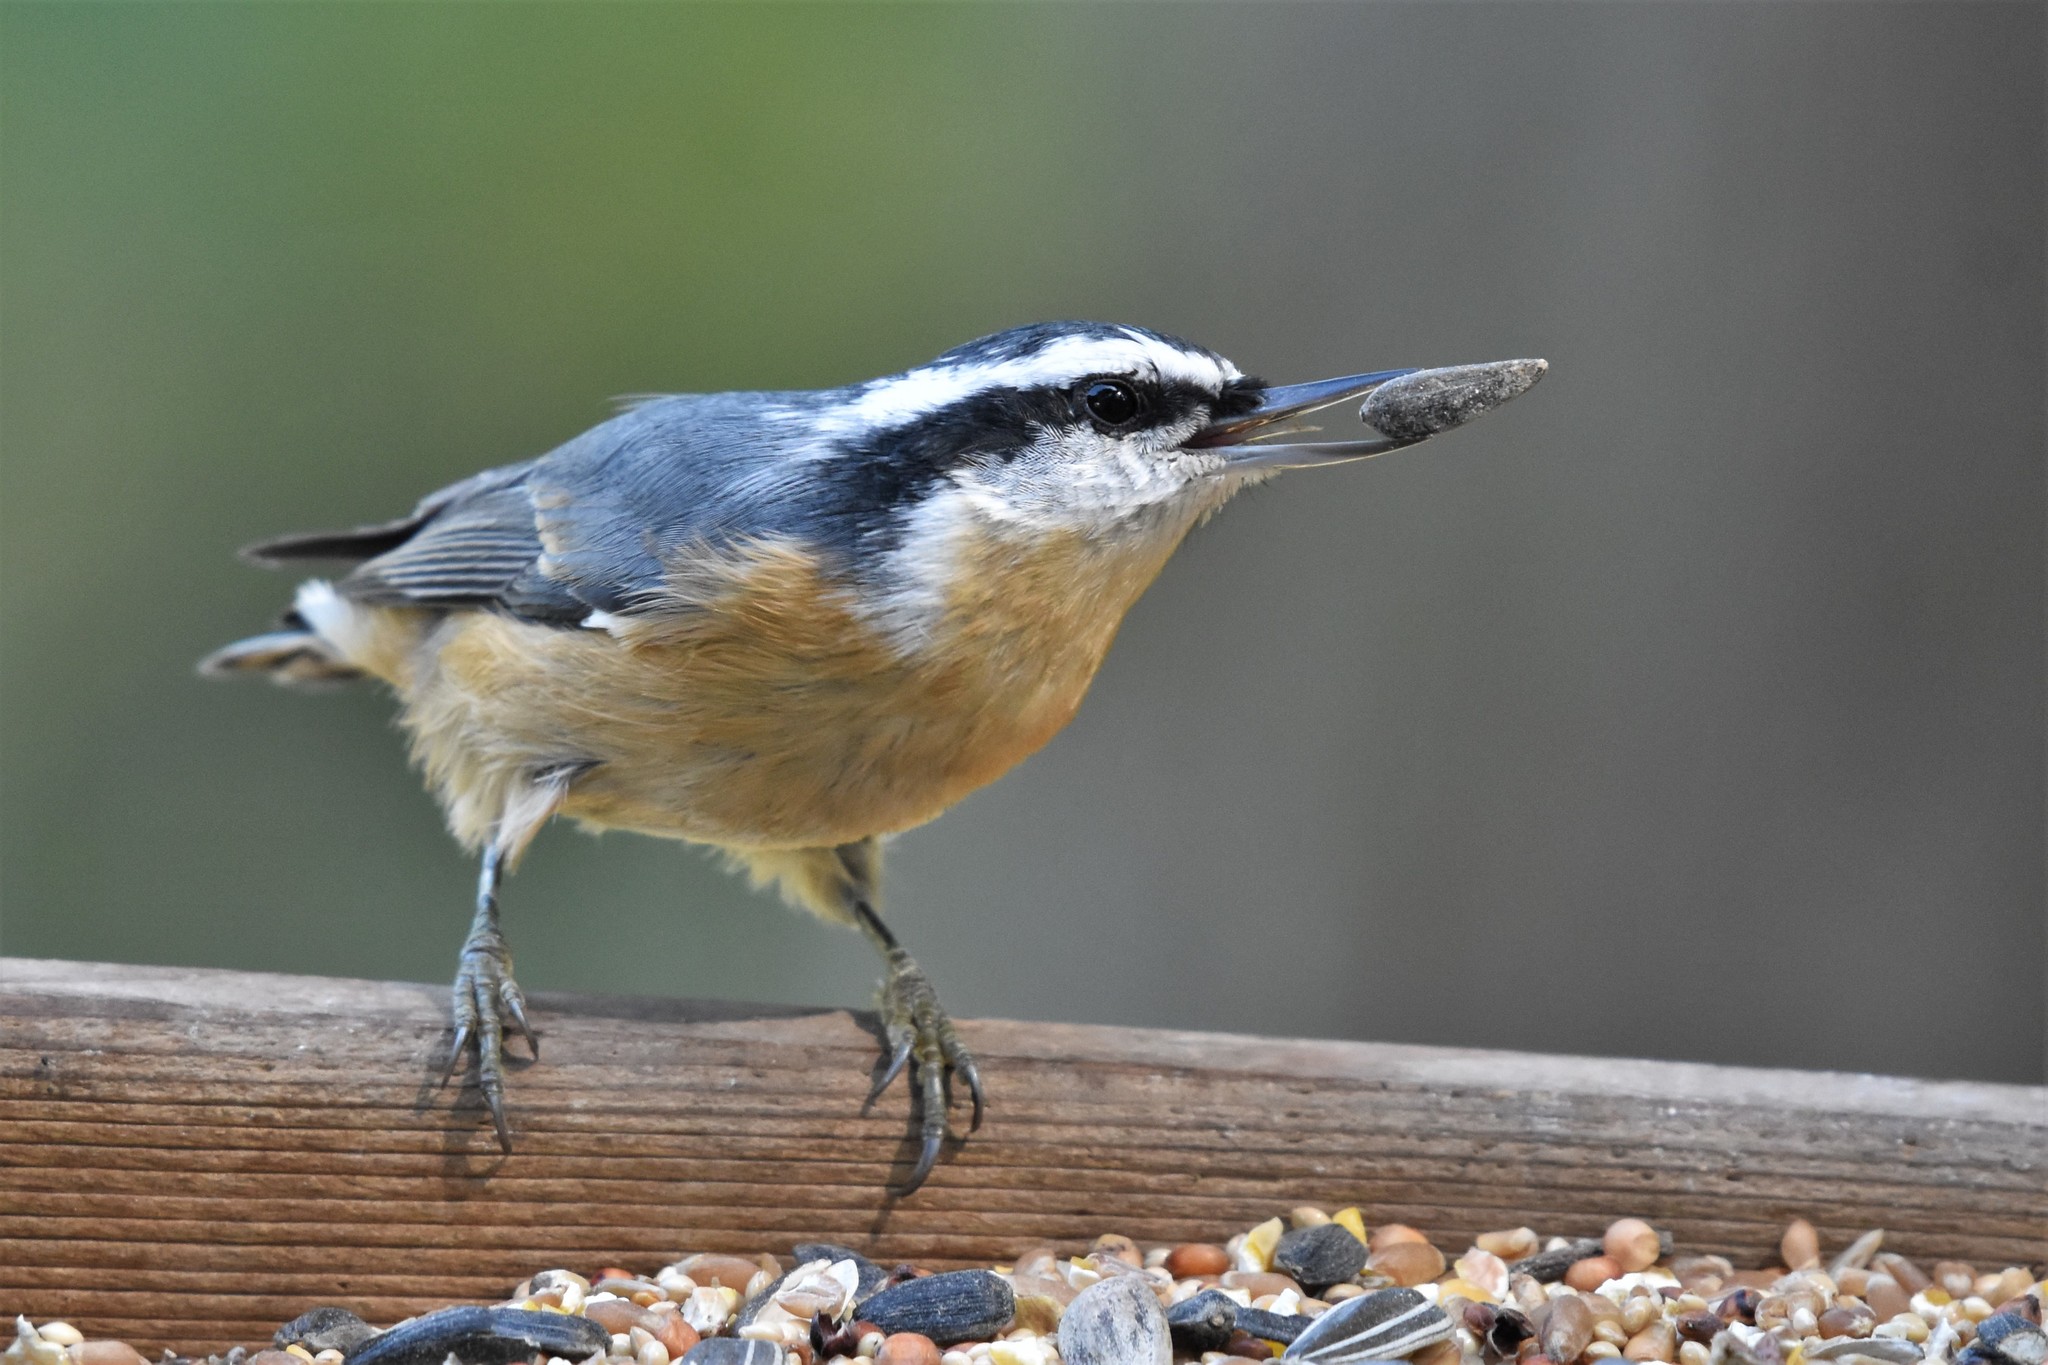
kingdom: Animalia
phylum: Chordata
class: Aves
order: Passeriformes
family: Sittidae
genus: Sitta
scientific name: Sitta canadensis
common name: Red-breasted nuthatch
